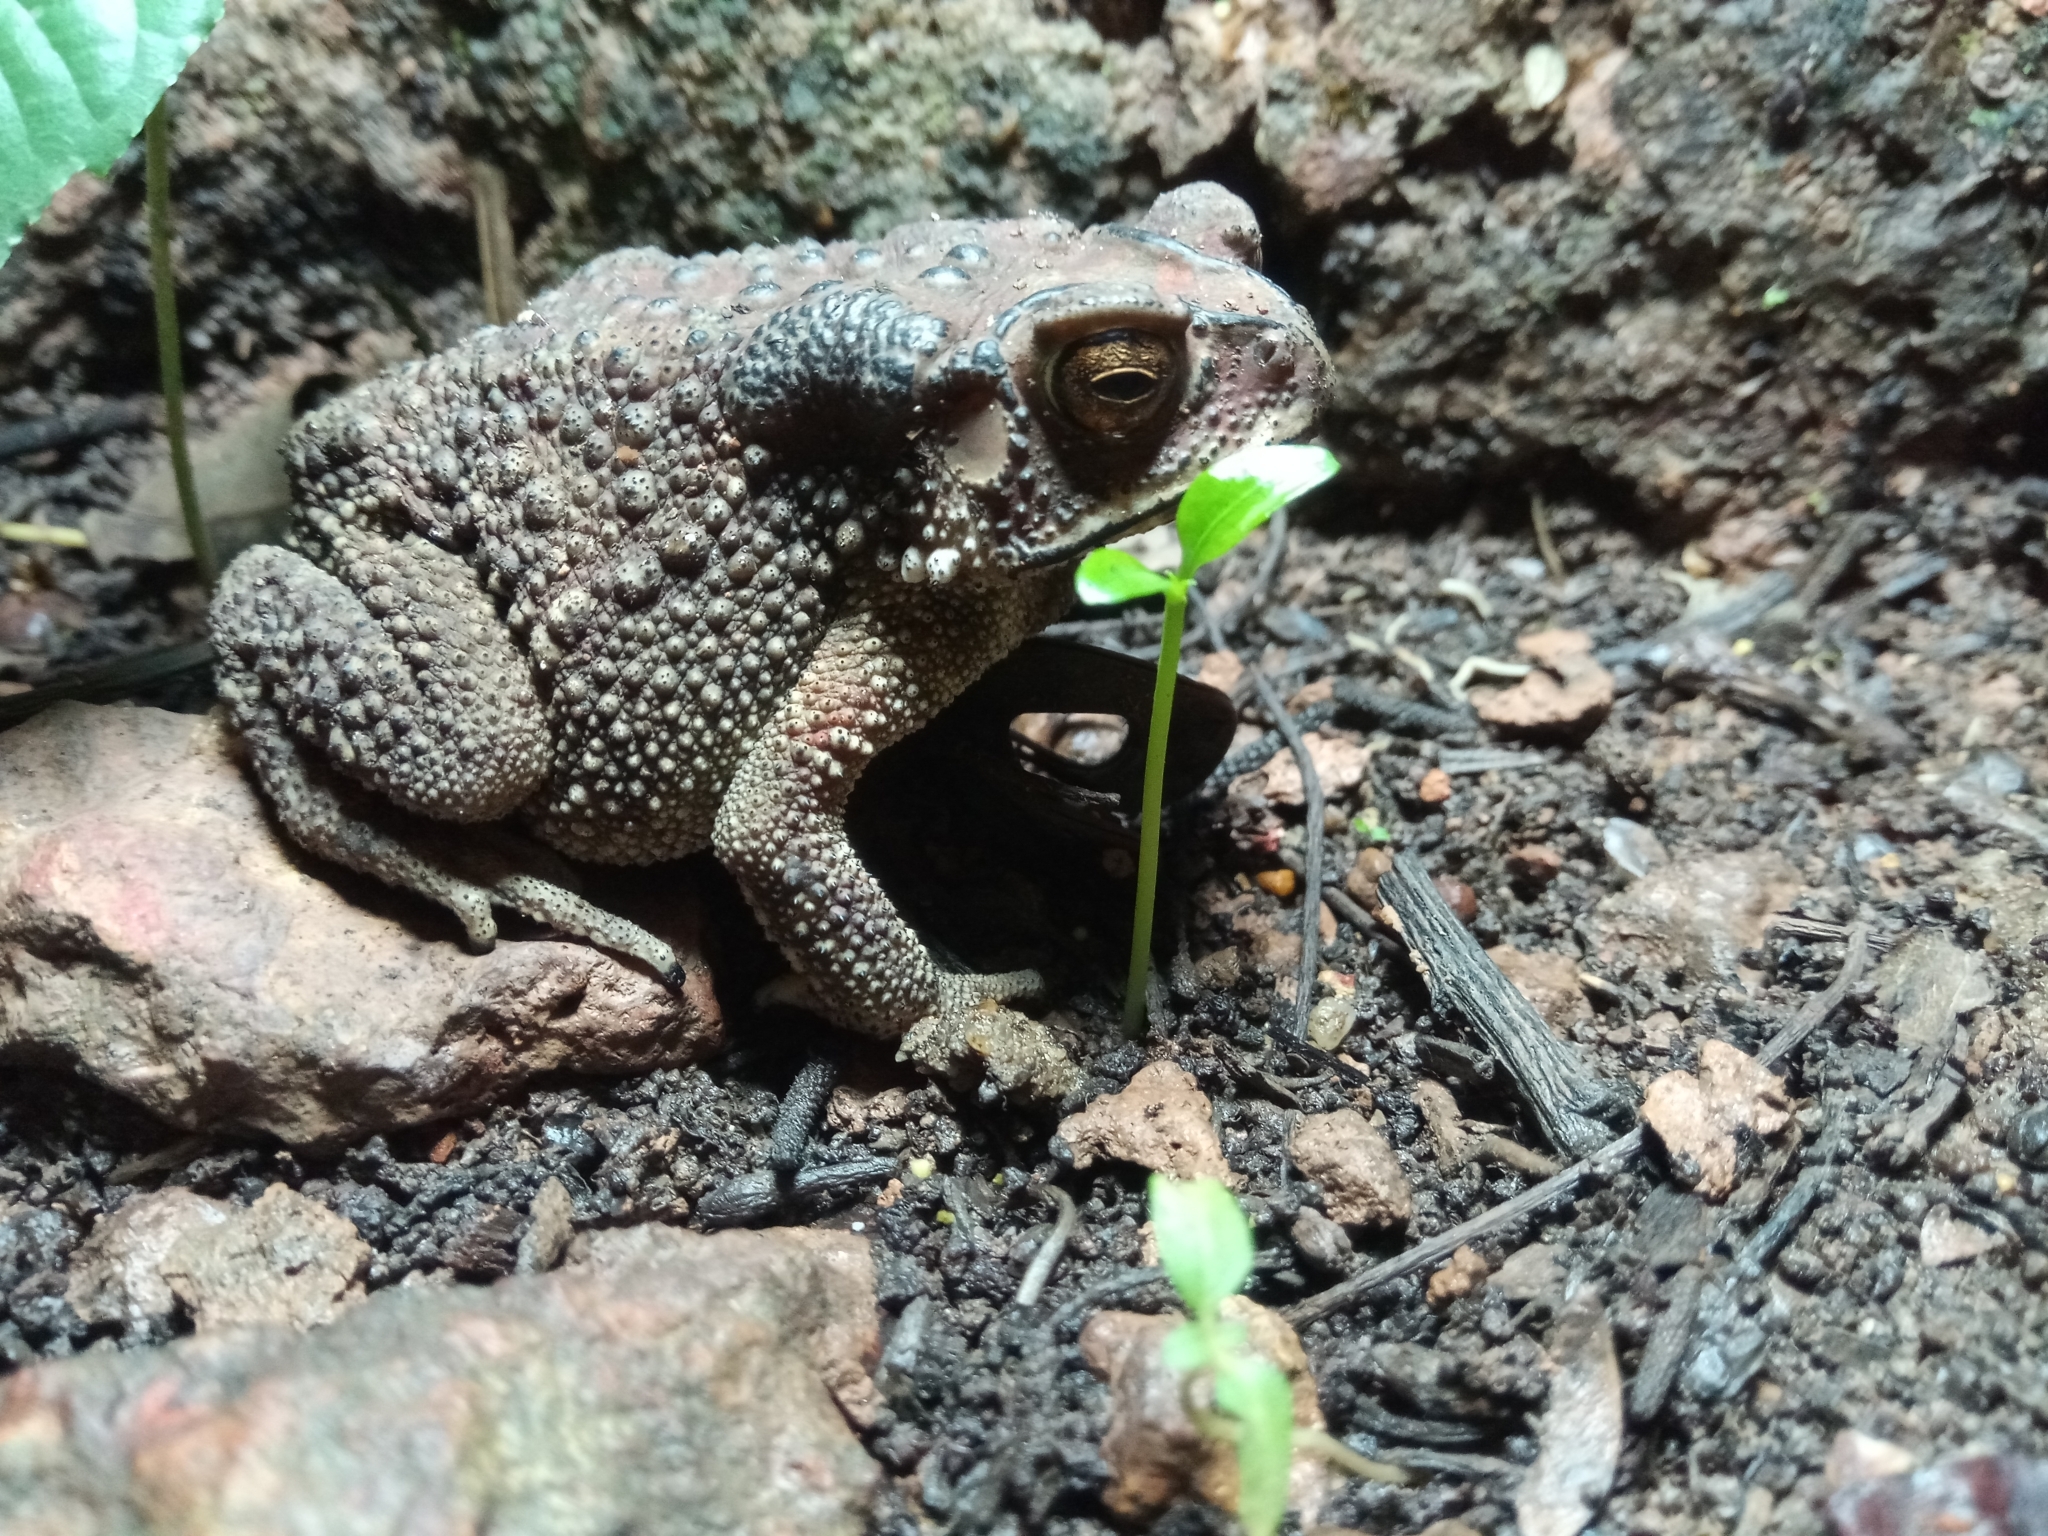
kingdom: Animalia
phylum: Chordata
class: Amphibia
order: Anura
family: Bufonidae
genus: Duttaphrynus
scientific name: Duttaphrynus melanostictus
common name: Common sunda toad
